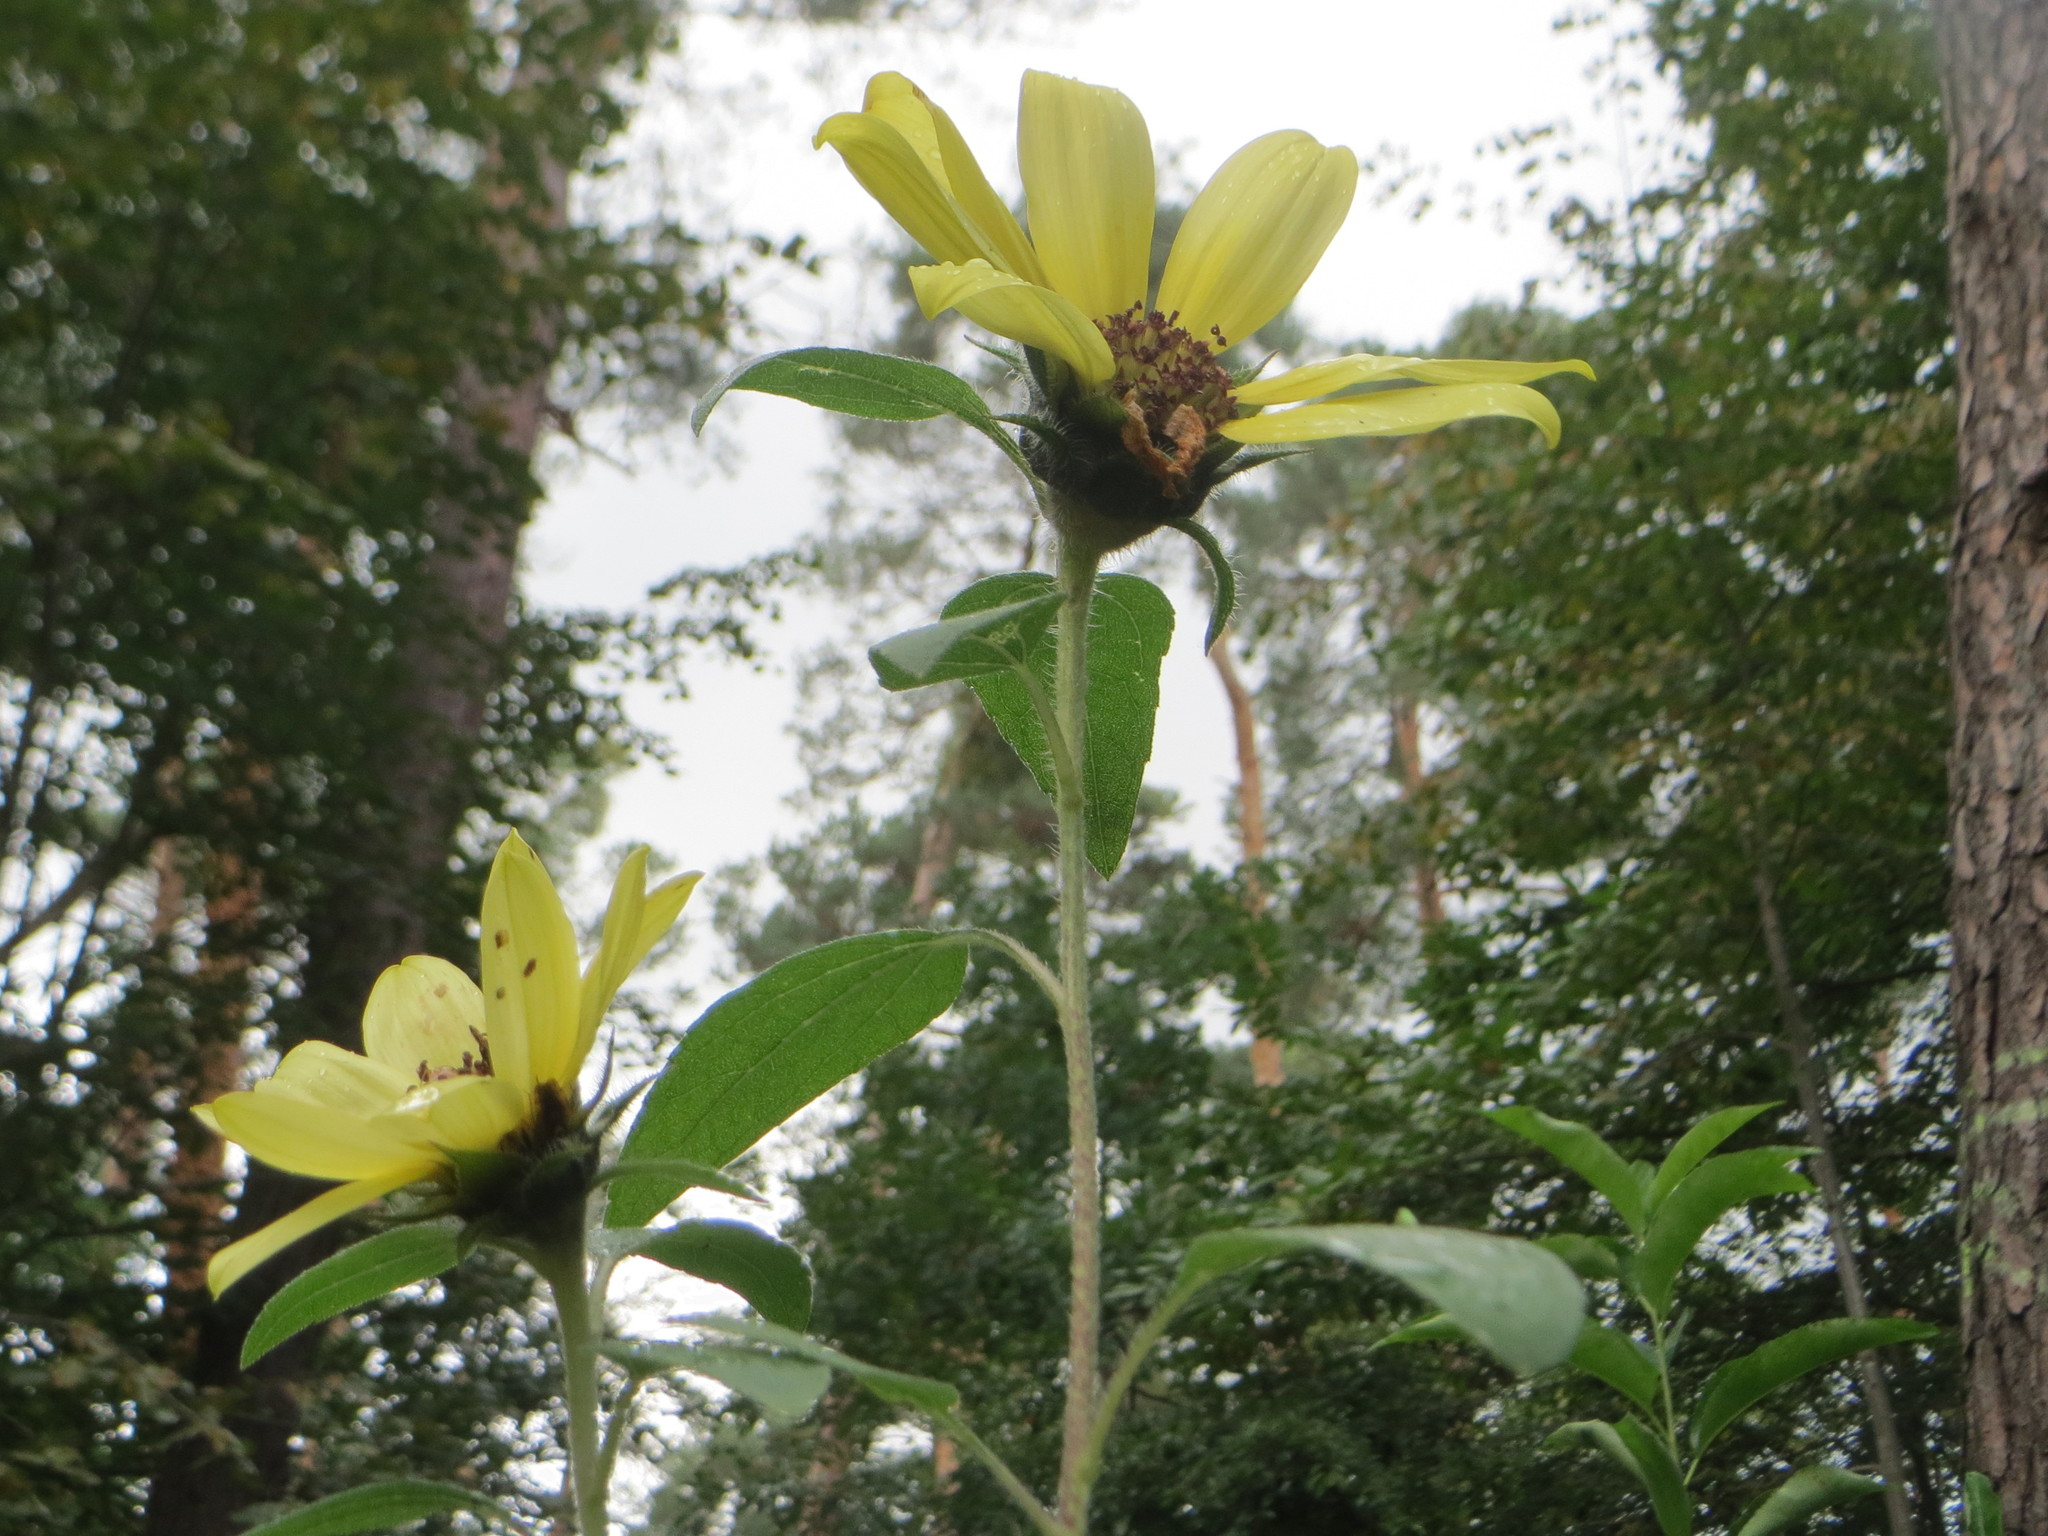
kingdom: Plantae
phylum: Tracheophyta
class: Magnoliopsida
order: Asterales
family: Asteraceae
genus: Helianthus
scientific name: Helianthus tuberosus
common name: Jerusalem artichoke
